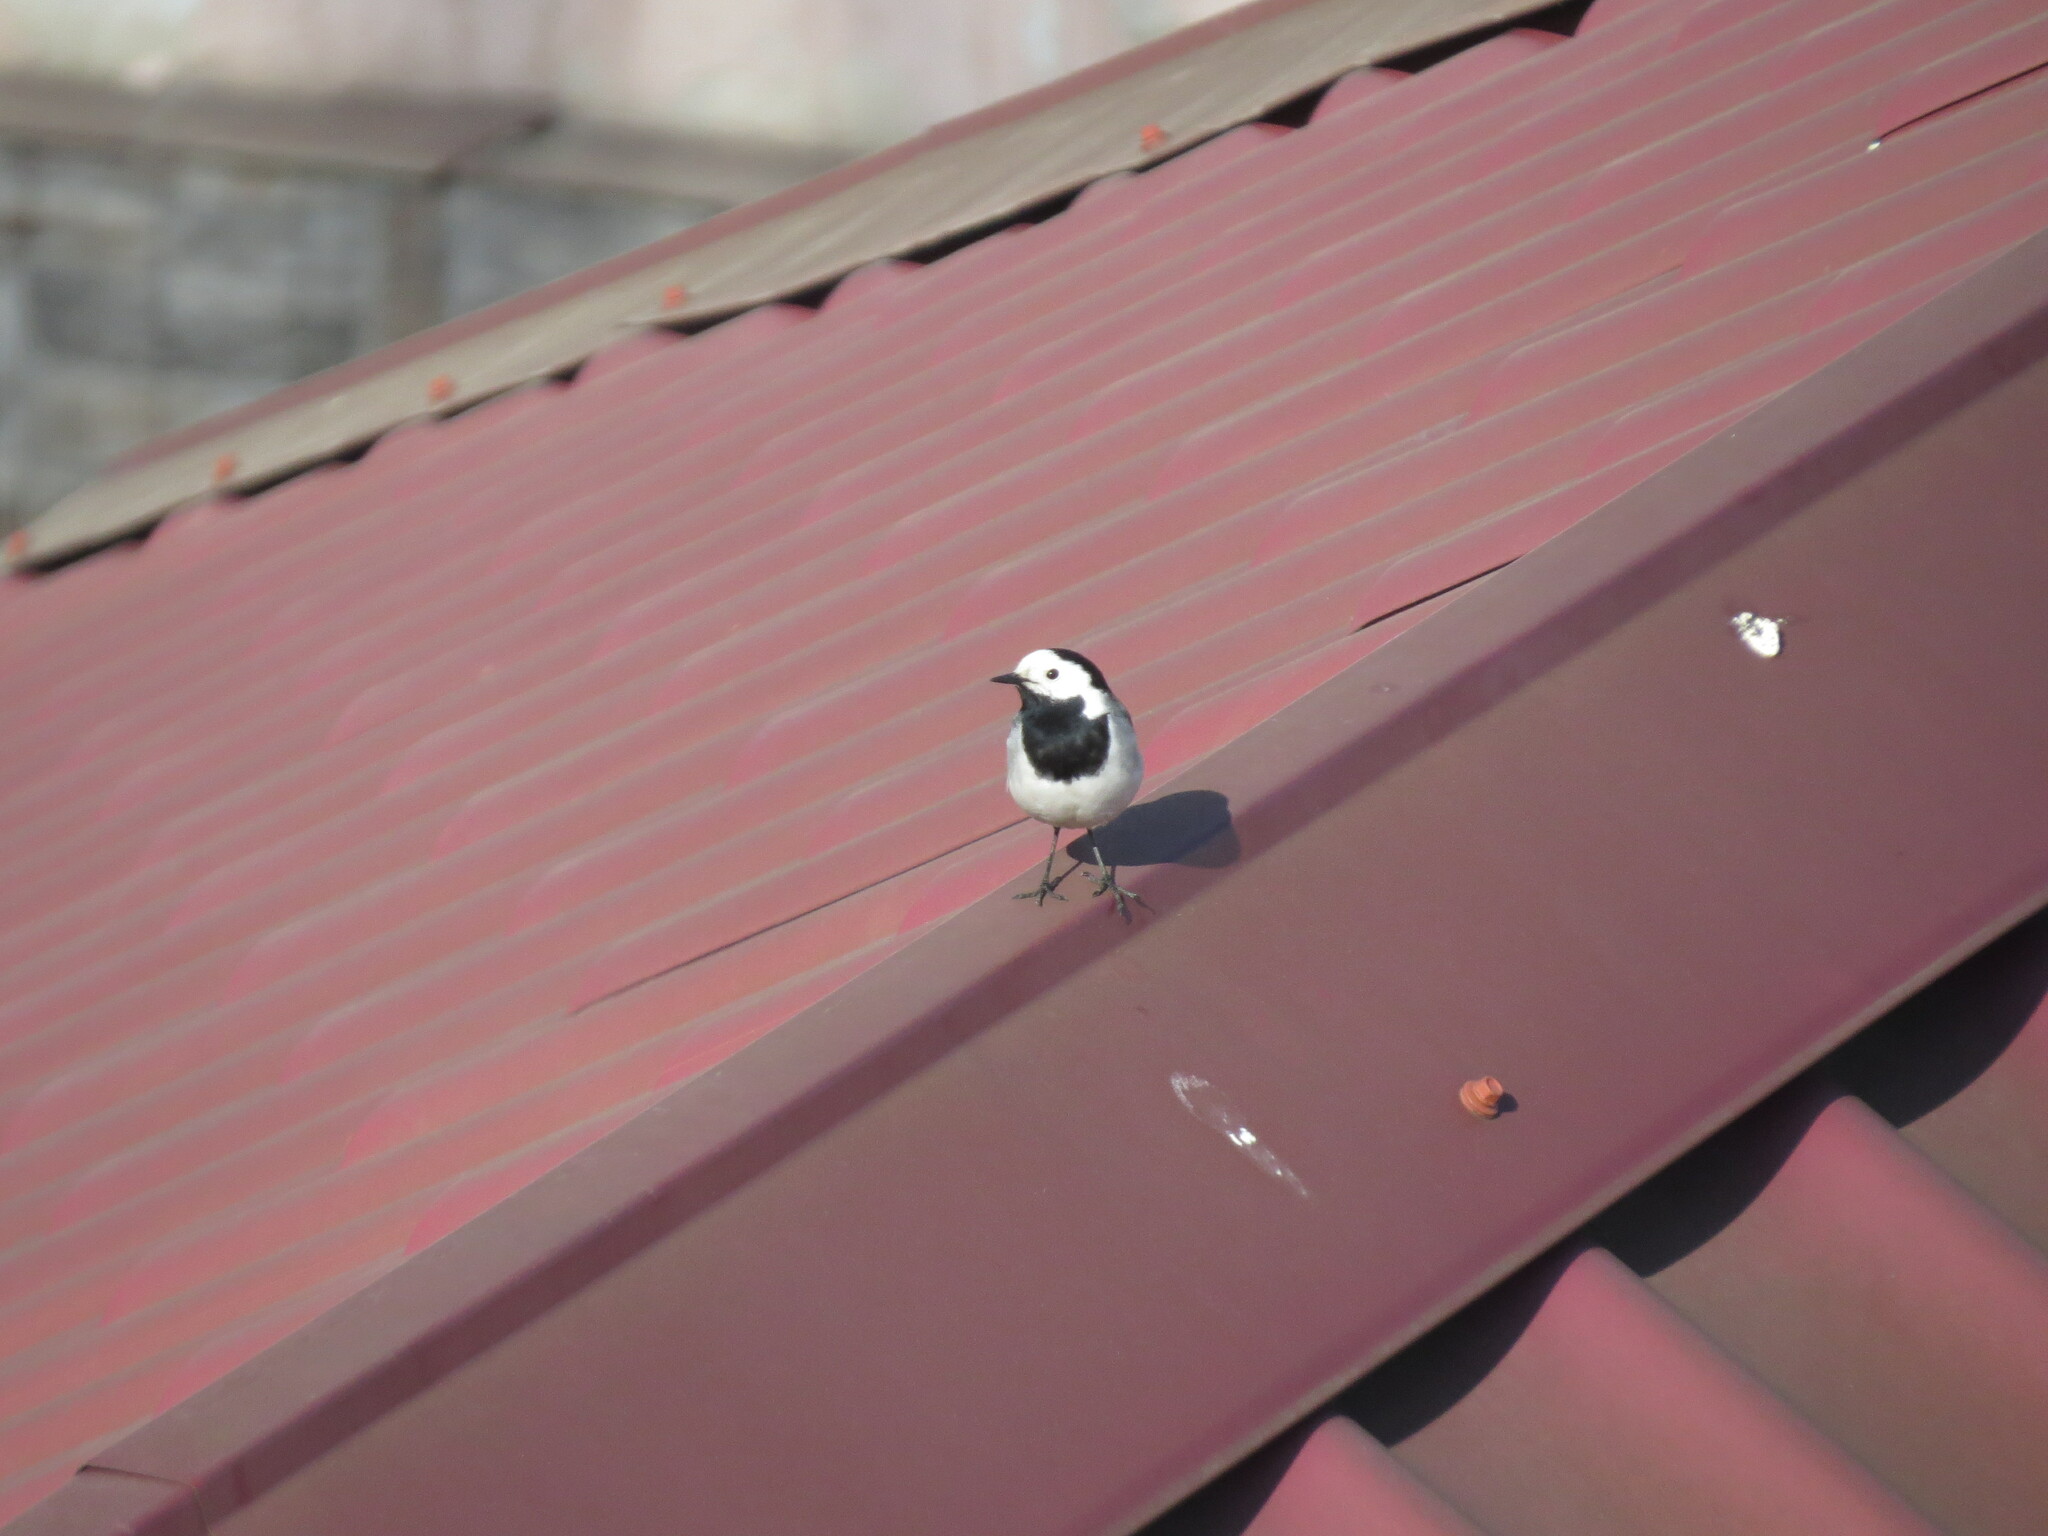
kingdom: Animalia
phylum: Chordata
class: Aves
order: Passeriformes
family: Motacillidae
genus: Motacilla
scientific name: Motacilla alba
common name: White wagtail
